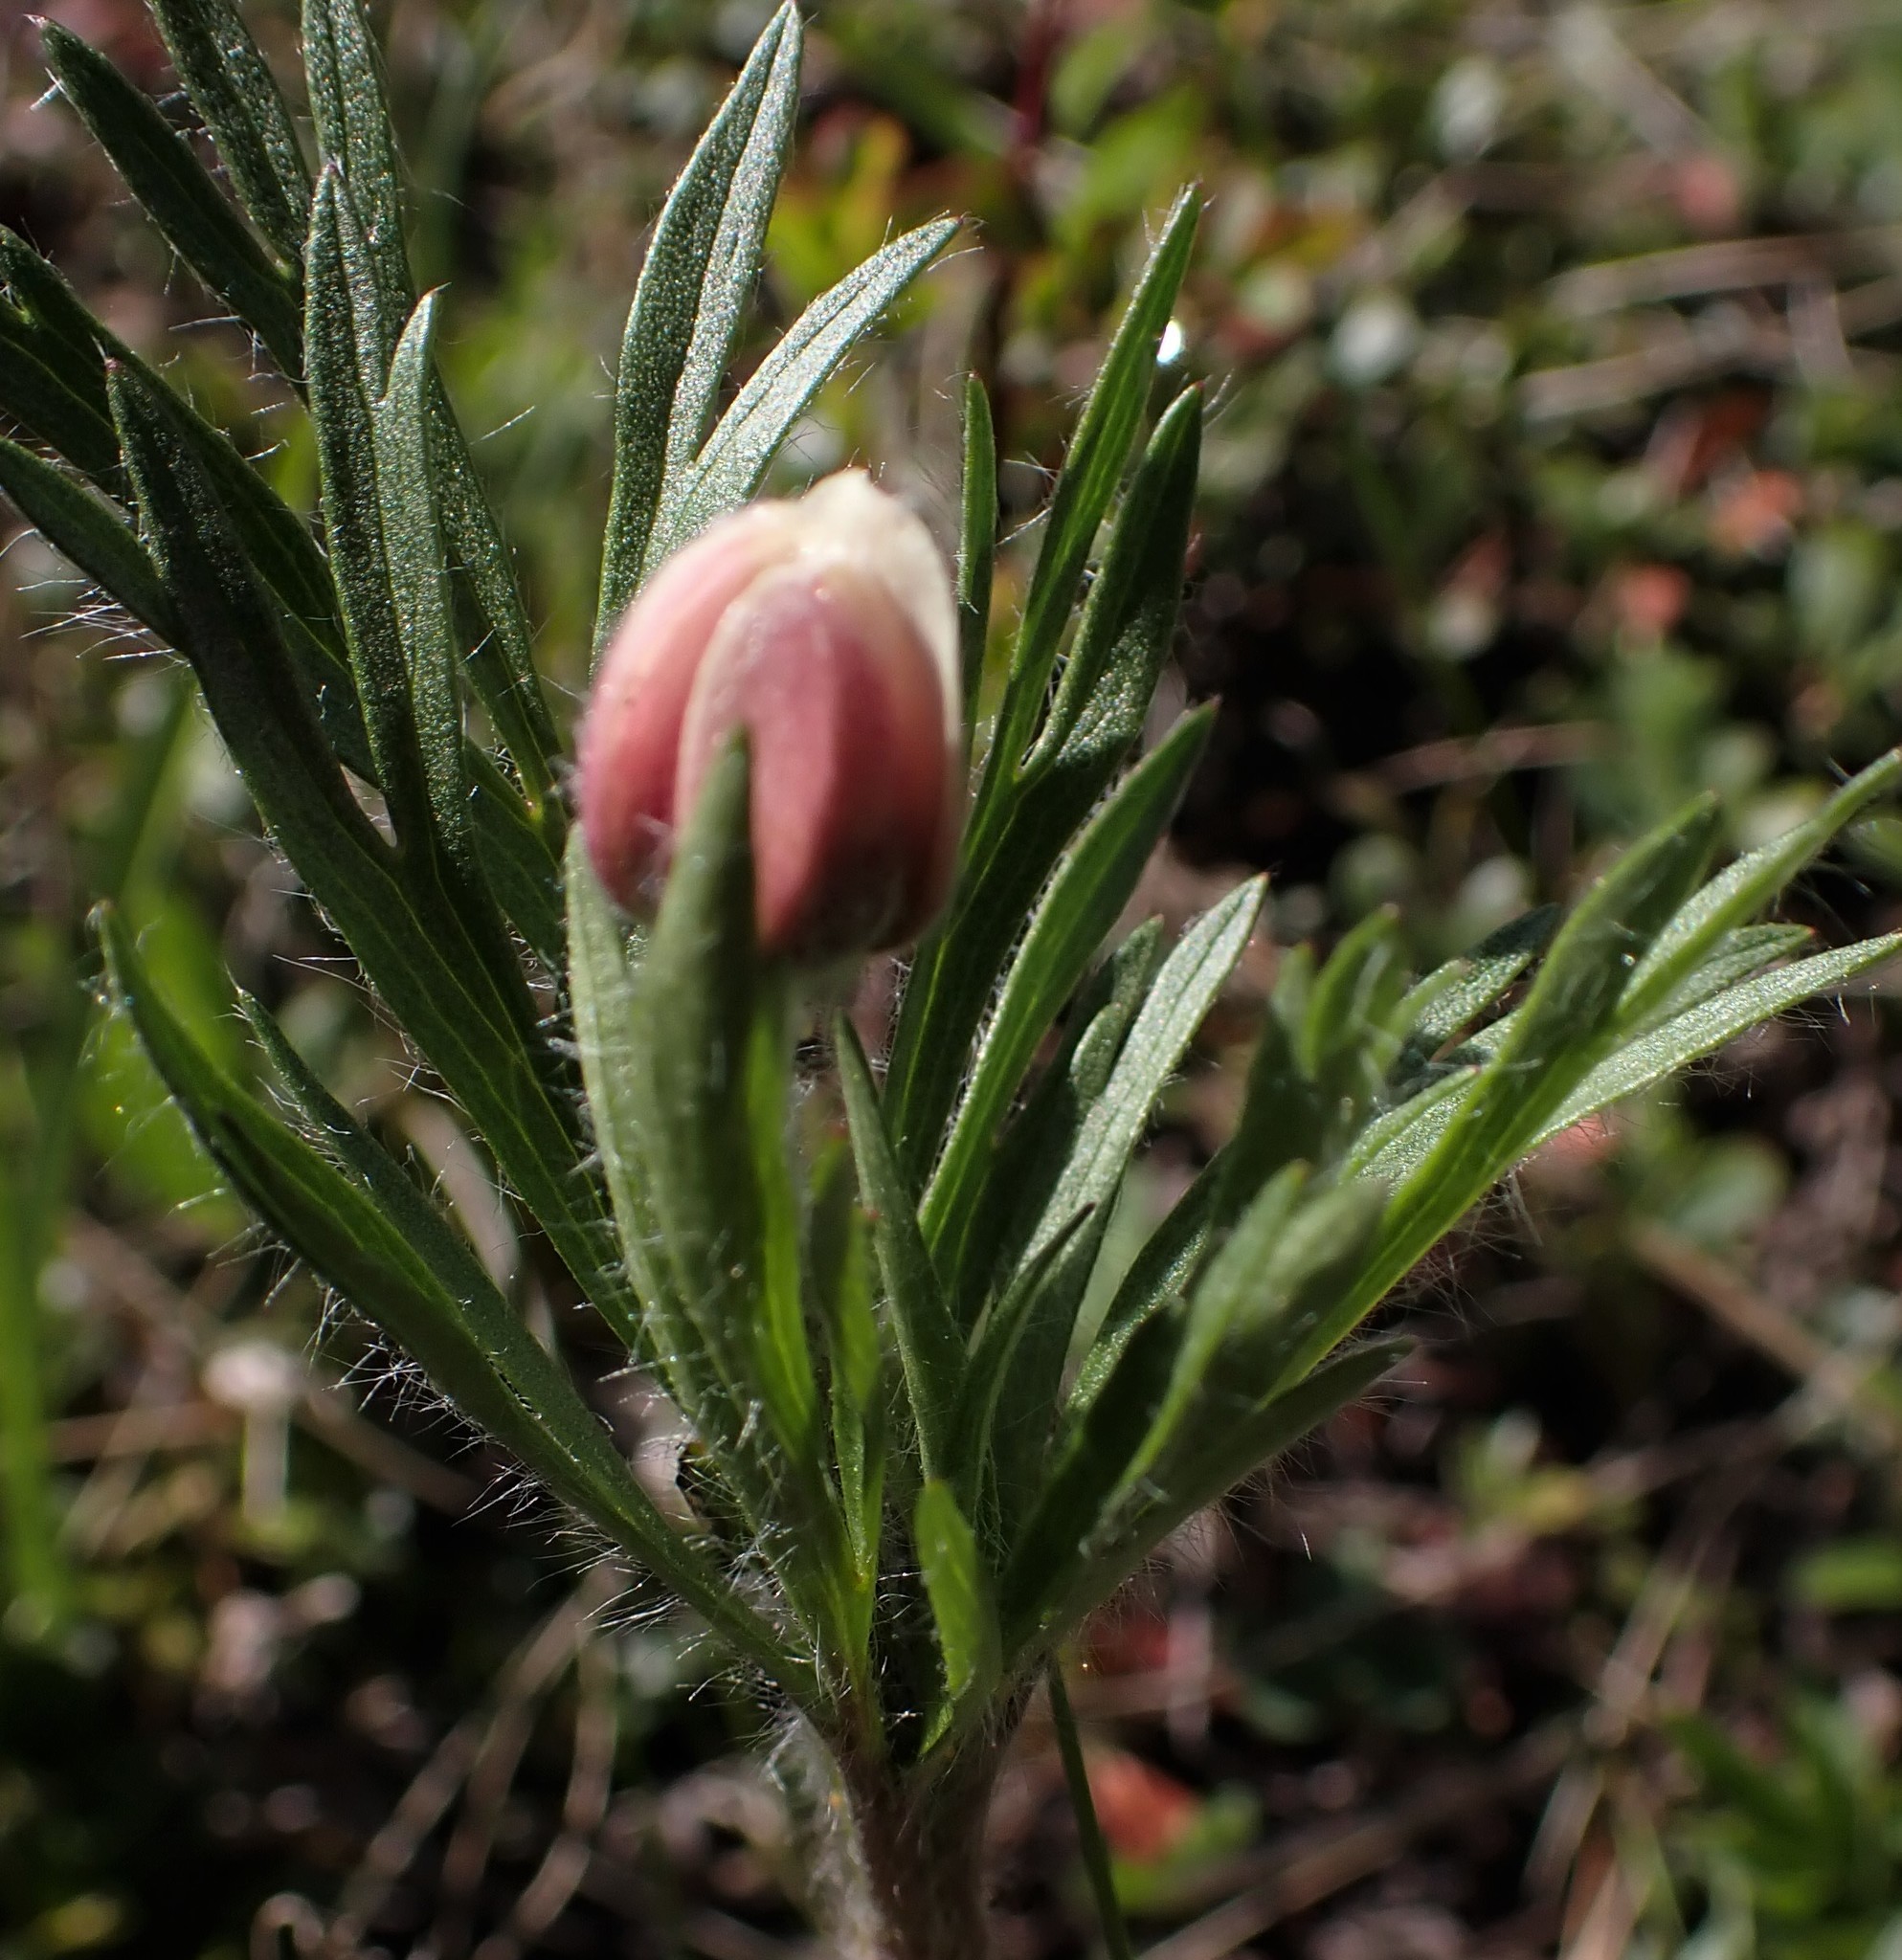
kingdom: Plantae
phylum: Tracheophyta
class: Magnoliopsida
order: Ranunculales
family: Ranunculaceae
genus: Anemone
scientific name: Anemone multifida
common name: Bird's-foot anemone
